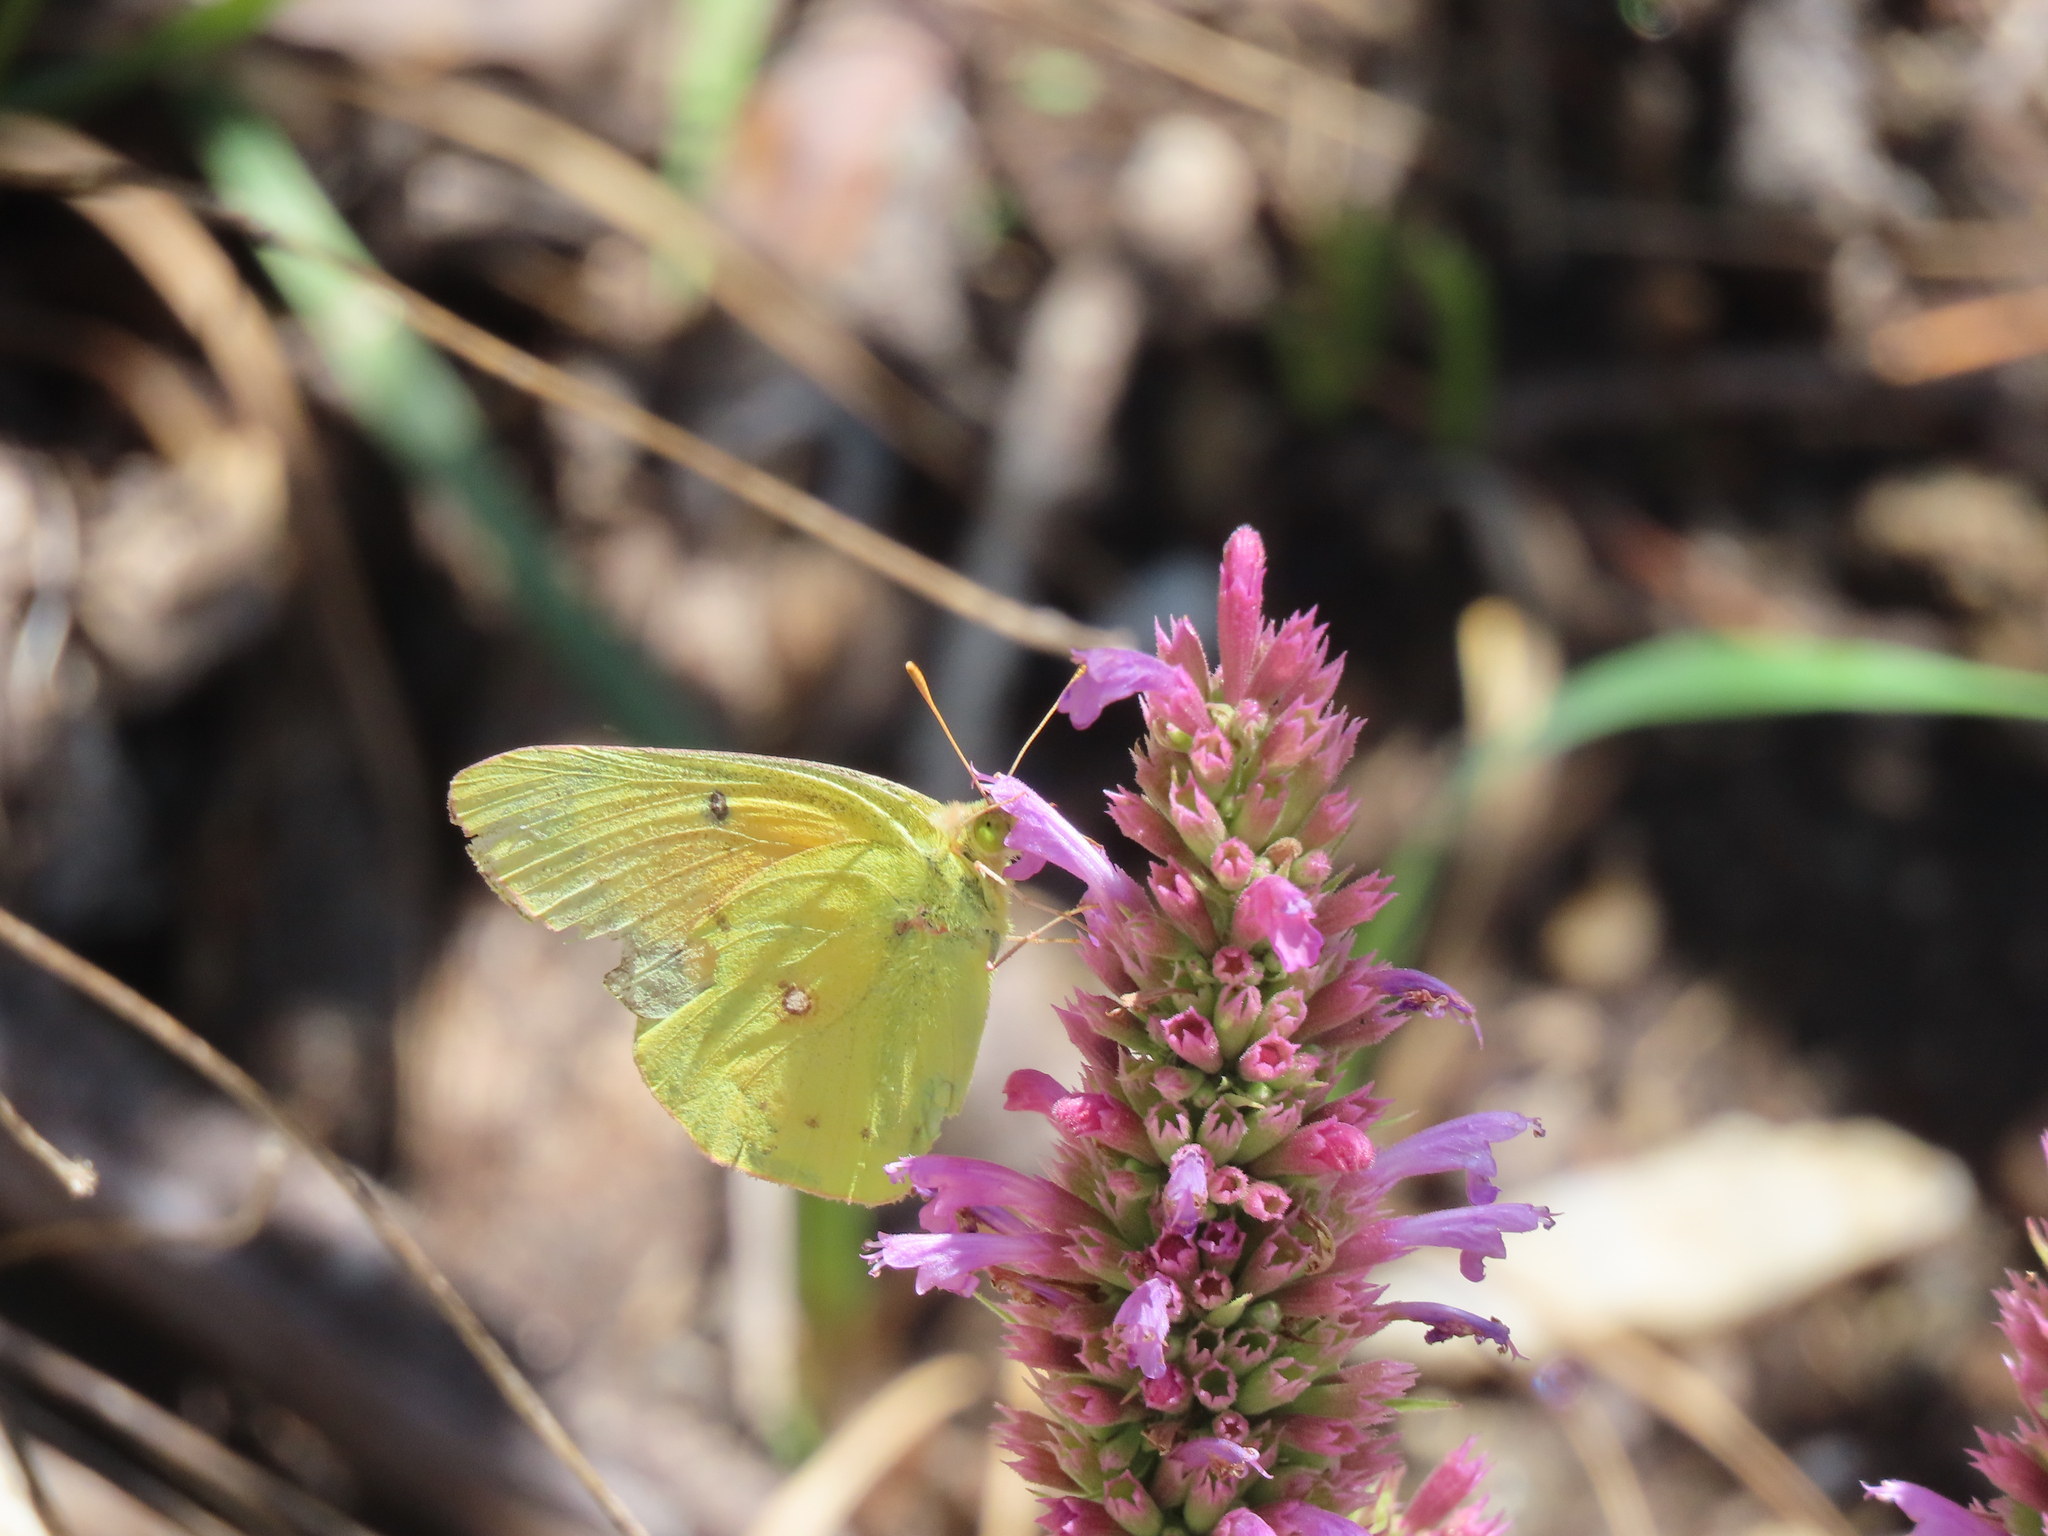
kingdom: Animalia
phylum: Arthropoda
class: Insecta
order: Lepidoptera
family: Pieridae
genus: Colias
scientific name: Colias eurytheme
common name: Alfalfa butterfly
